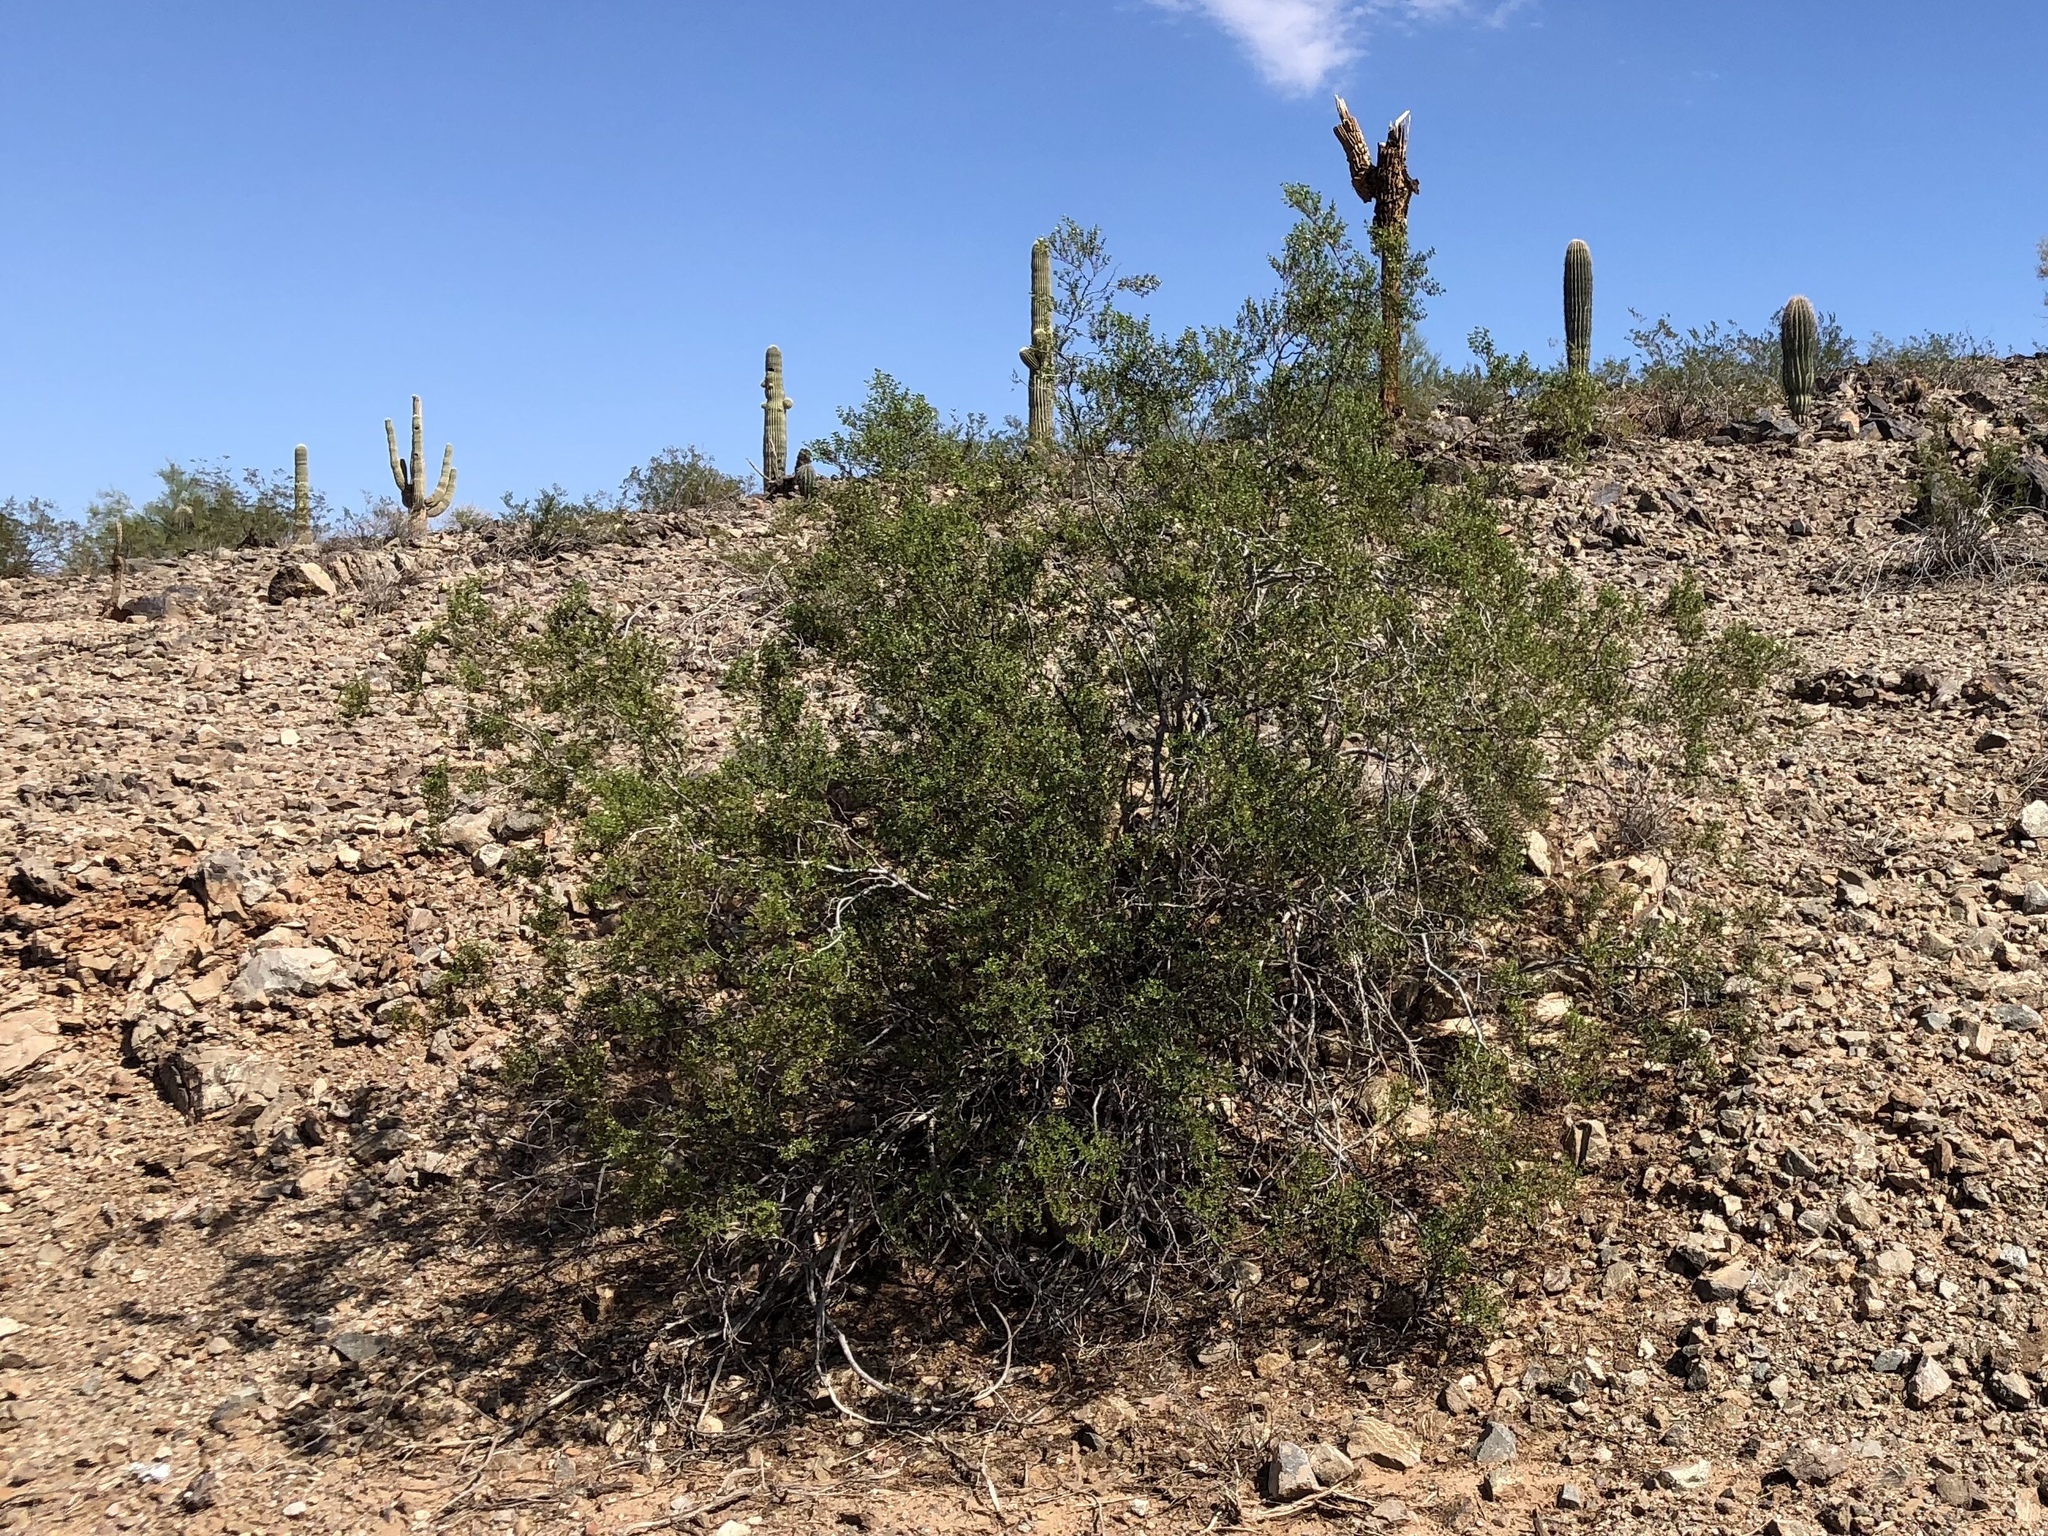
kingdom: Plantae
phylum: Tracheophyta
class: Magnoliopsida
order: Zygophyllales
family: Zygophyllaceae
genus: Larrea
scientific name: Larrea tridentata
